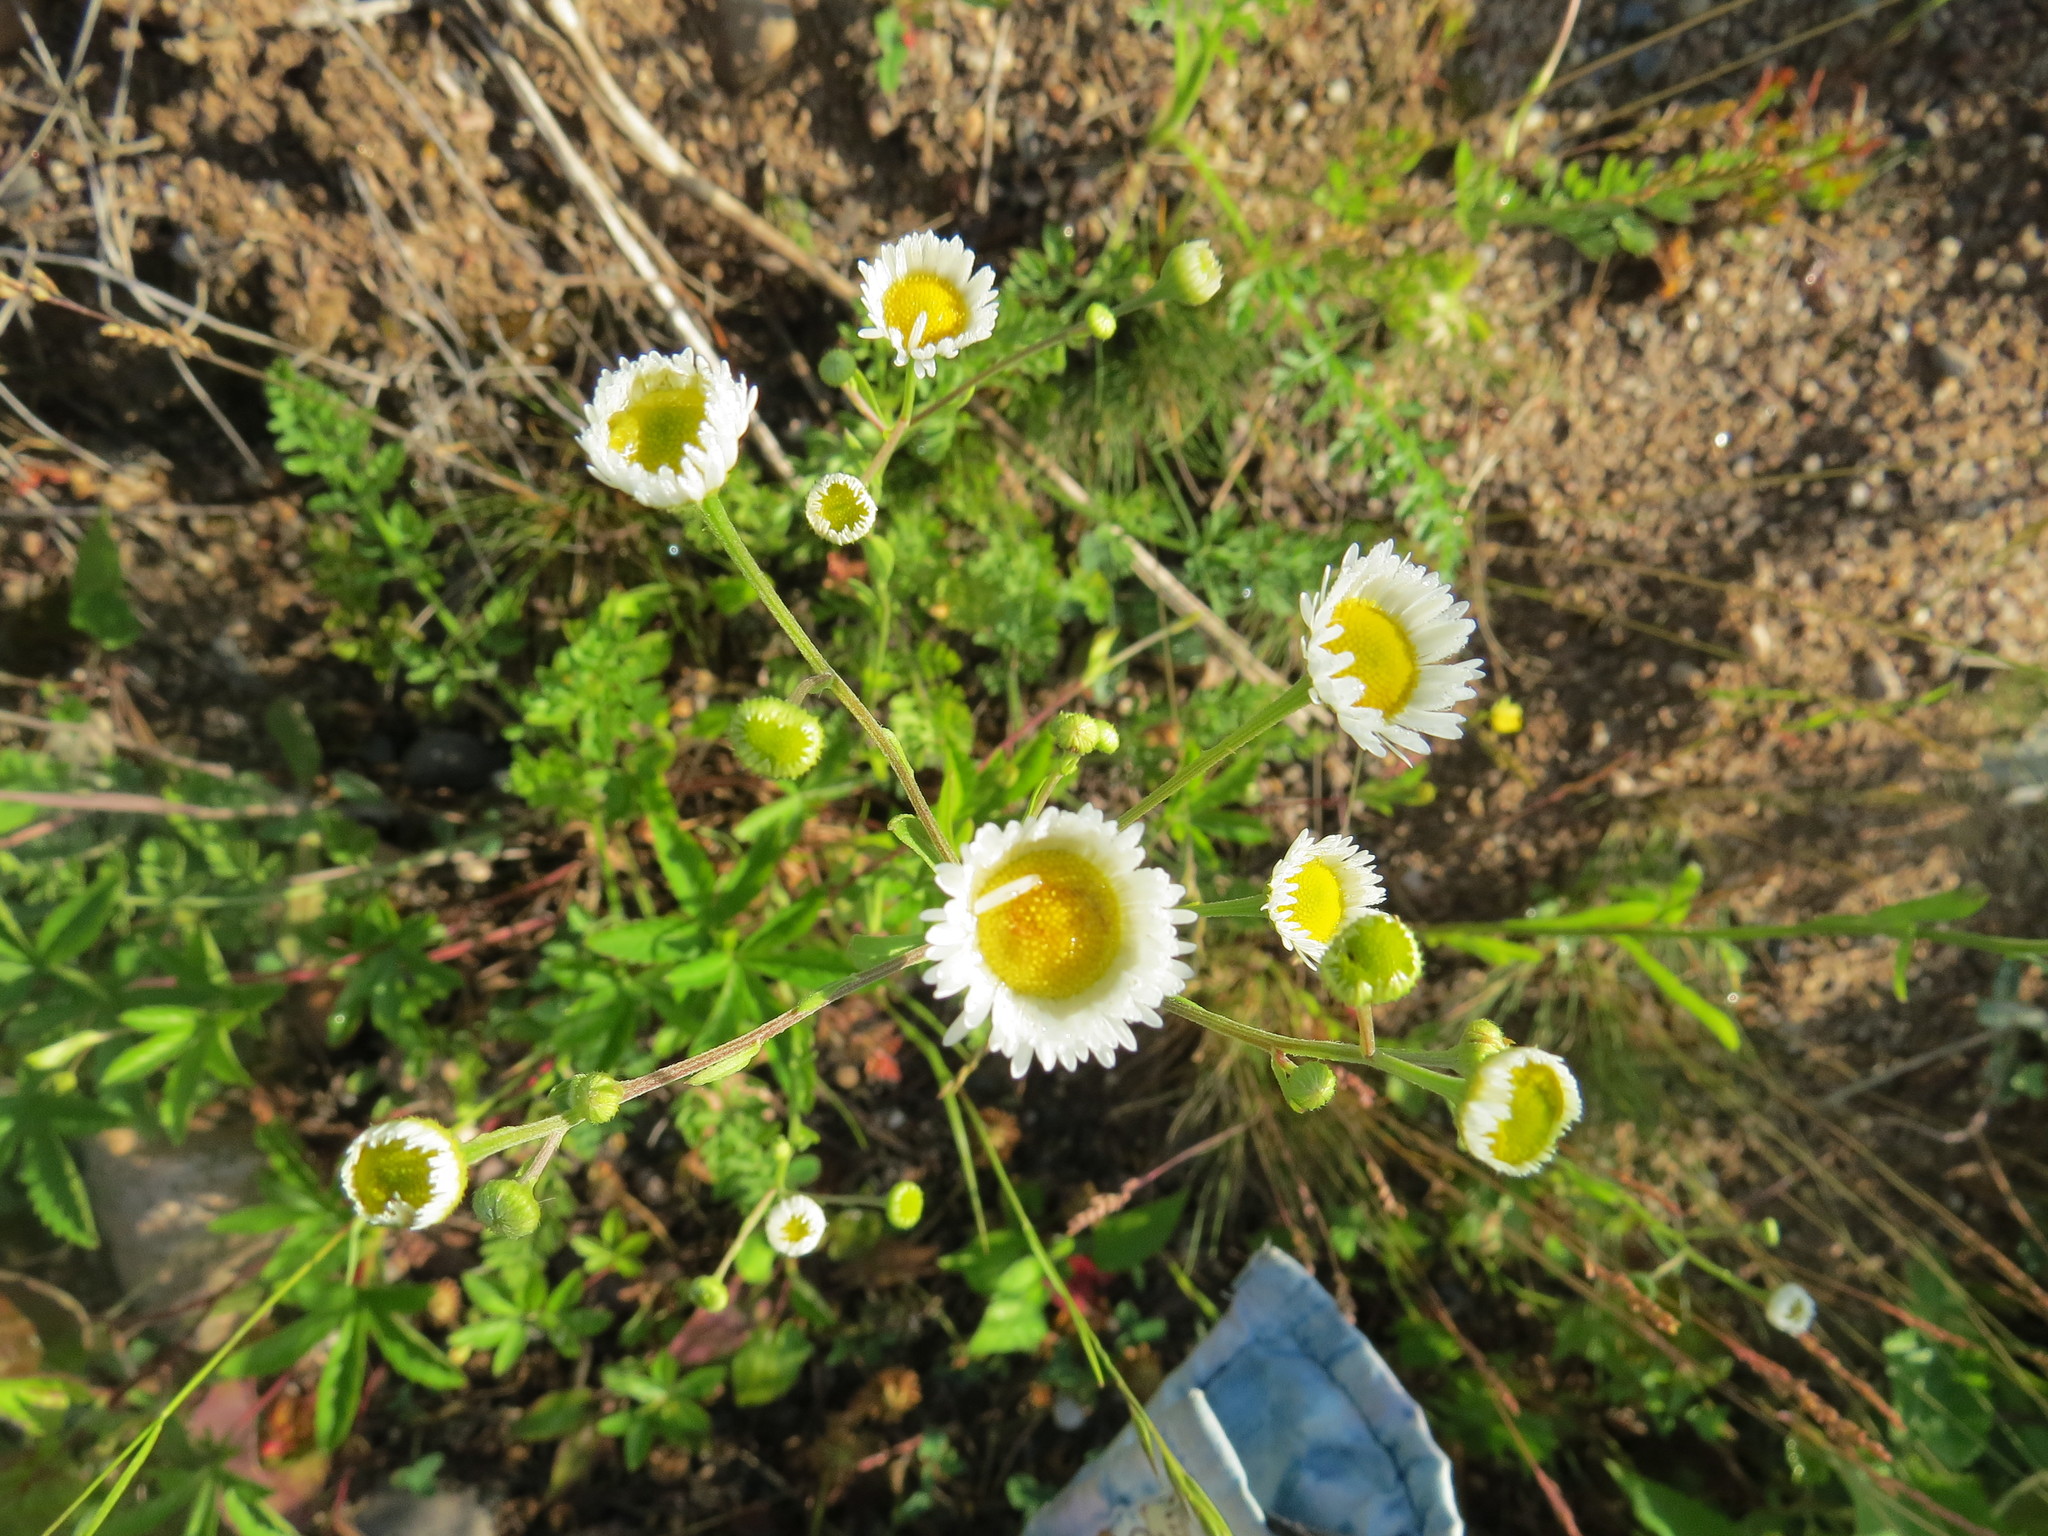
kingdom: Plantae
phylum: Tracheophyta
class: Magnoliopsida
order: Asterales
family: Asteraceae
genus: Erigeron
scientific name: Erigeron annuus
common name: Tall fleabane
